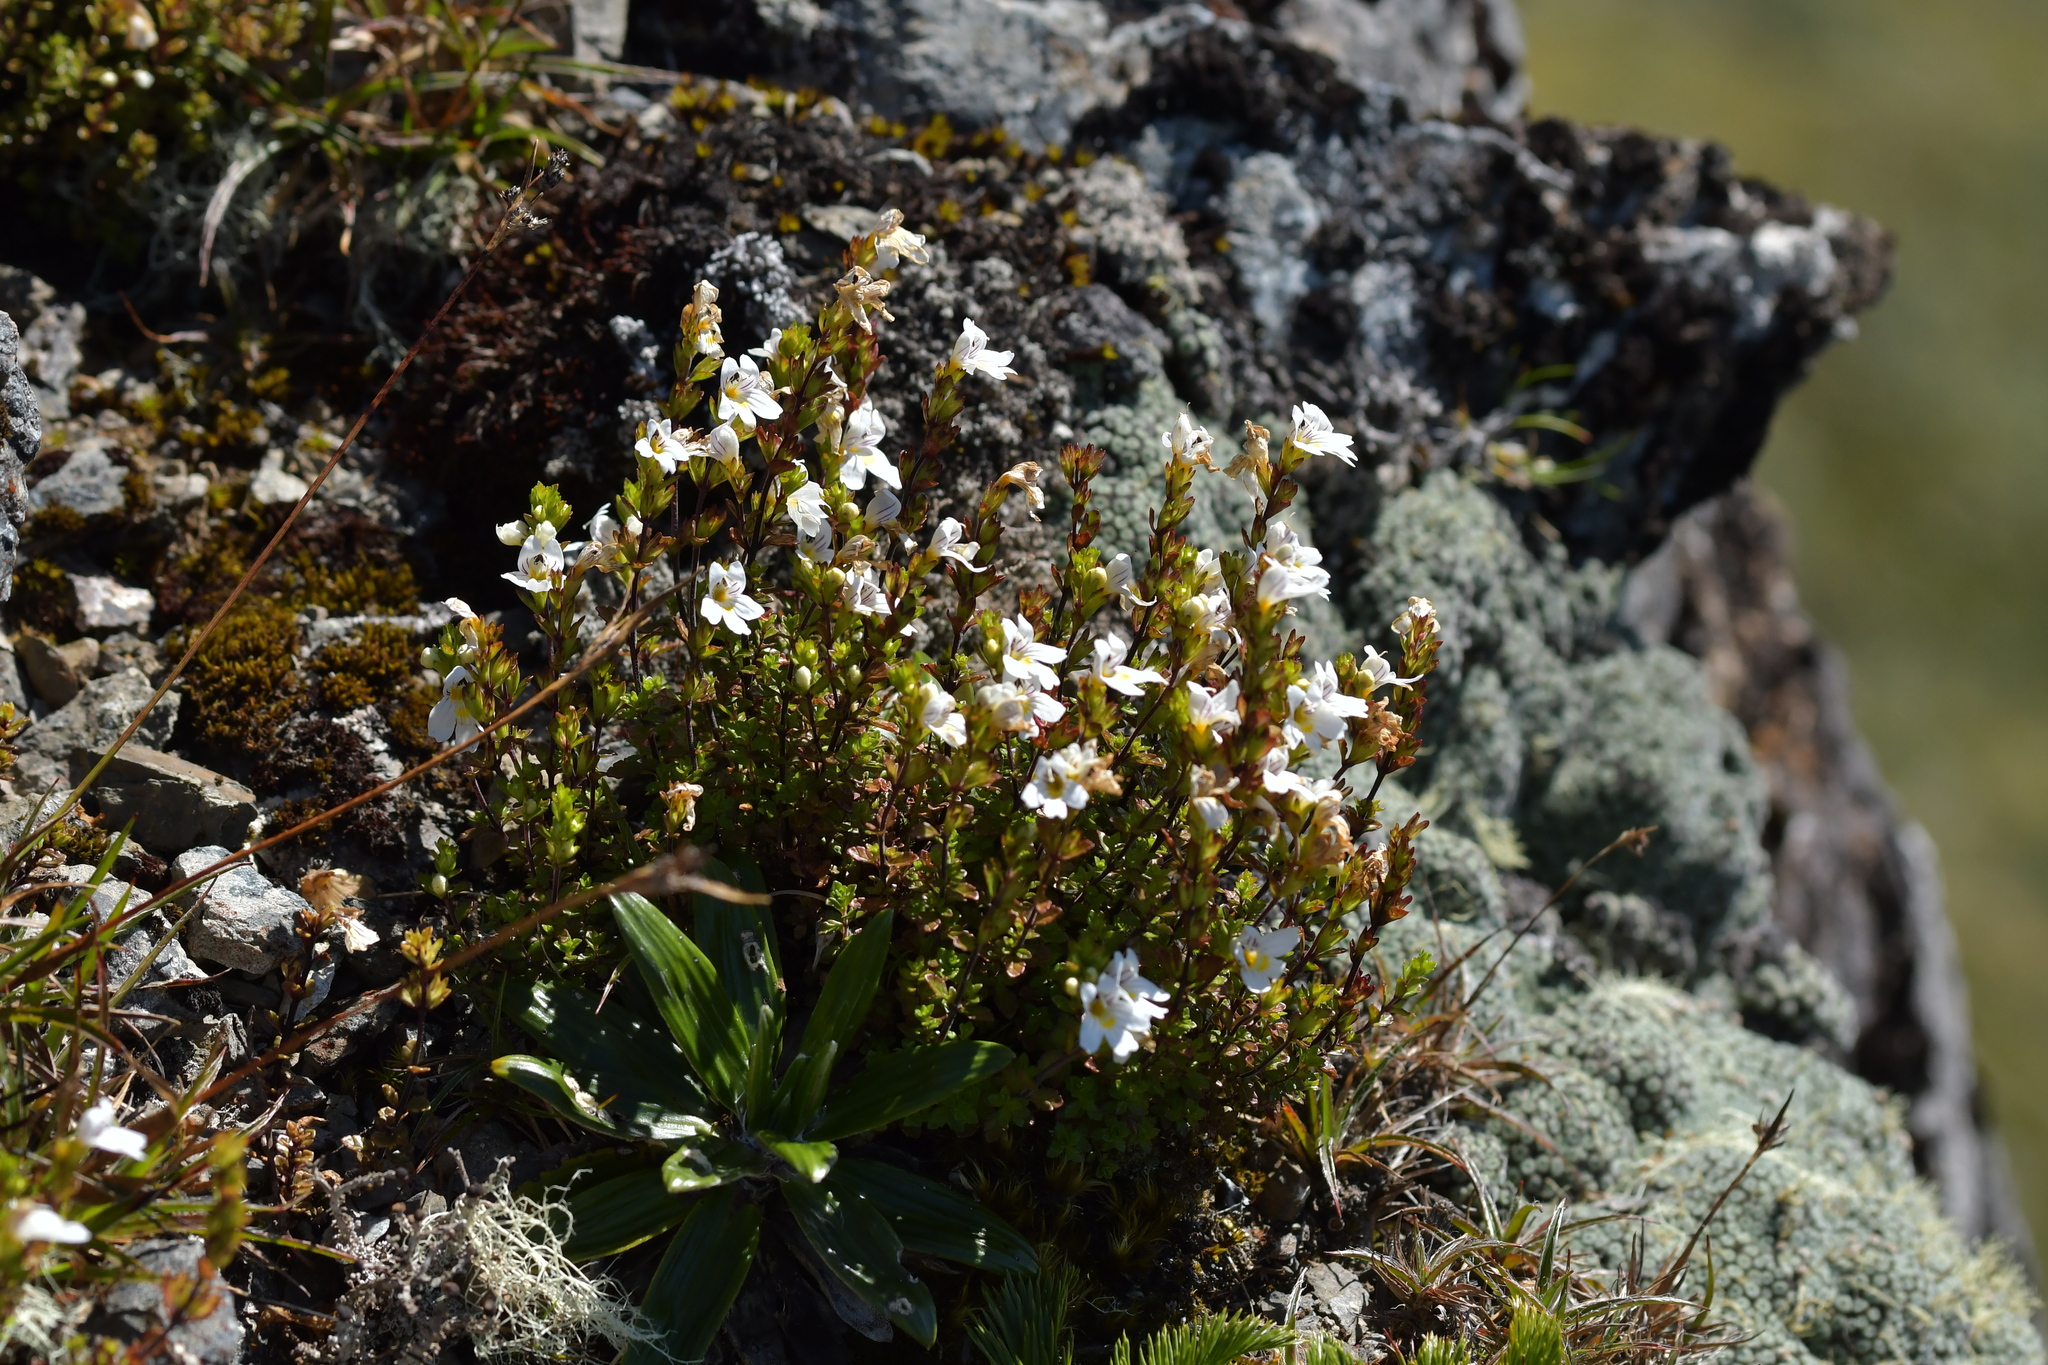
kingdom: Plantae
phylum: Tracheophyta
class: Magnoliopsida
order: Lamiales
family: Orobanchaceae
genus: Euphrasia
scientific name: Euphrasia cuneata
